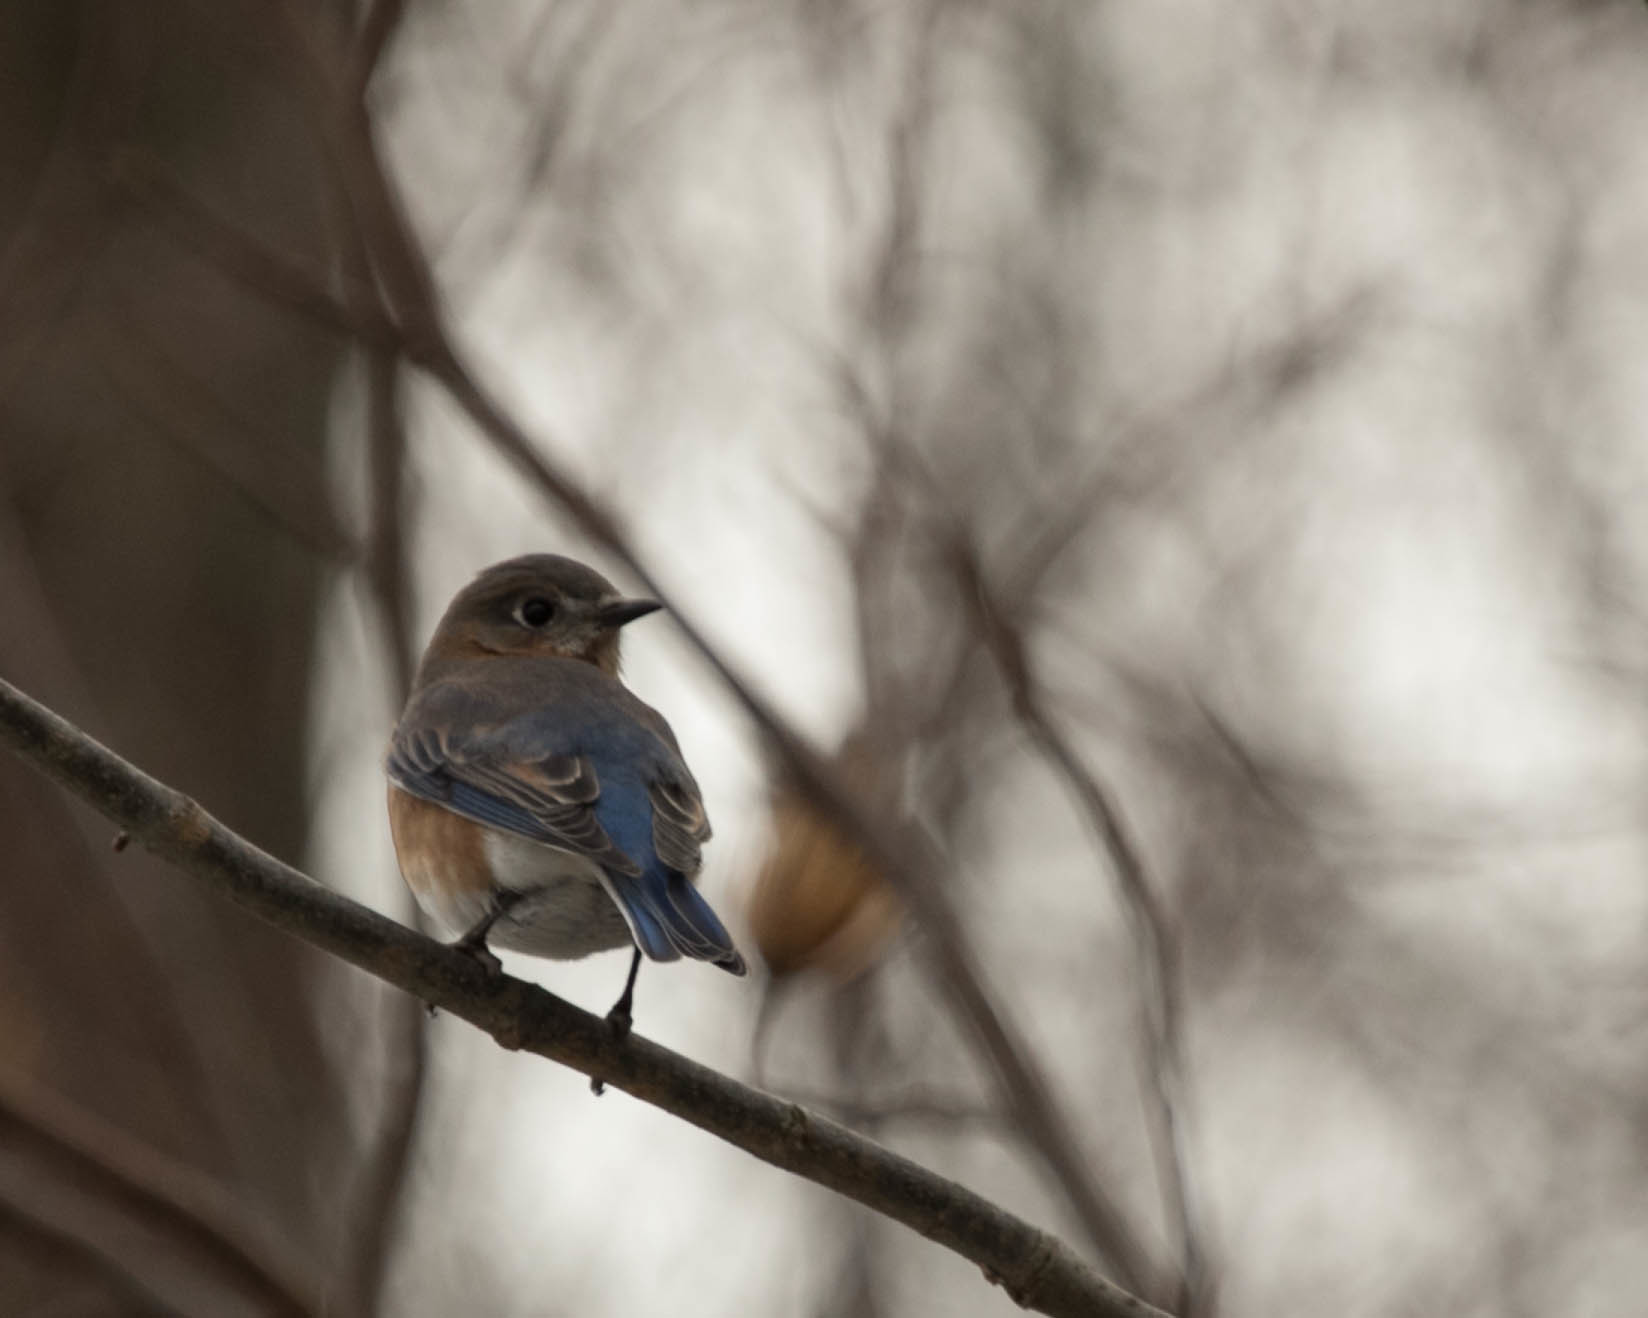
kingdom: Animalia
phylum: Chordata
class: Aves
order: Passeriformes
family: Turdidae
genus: Sialia
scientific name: Sialia sialis
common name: Eastern bluebird
